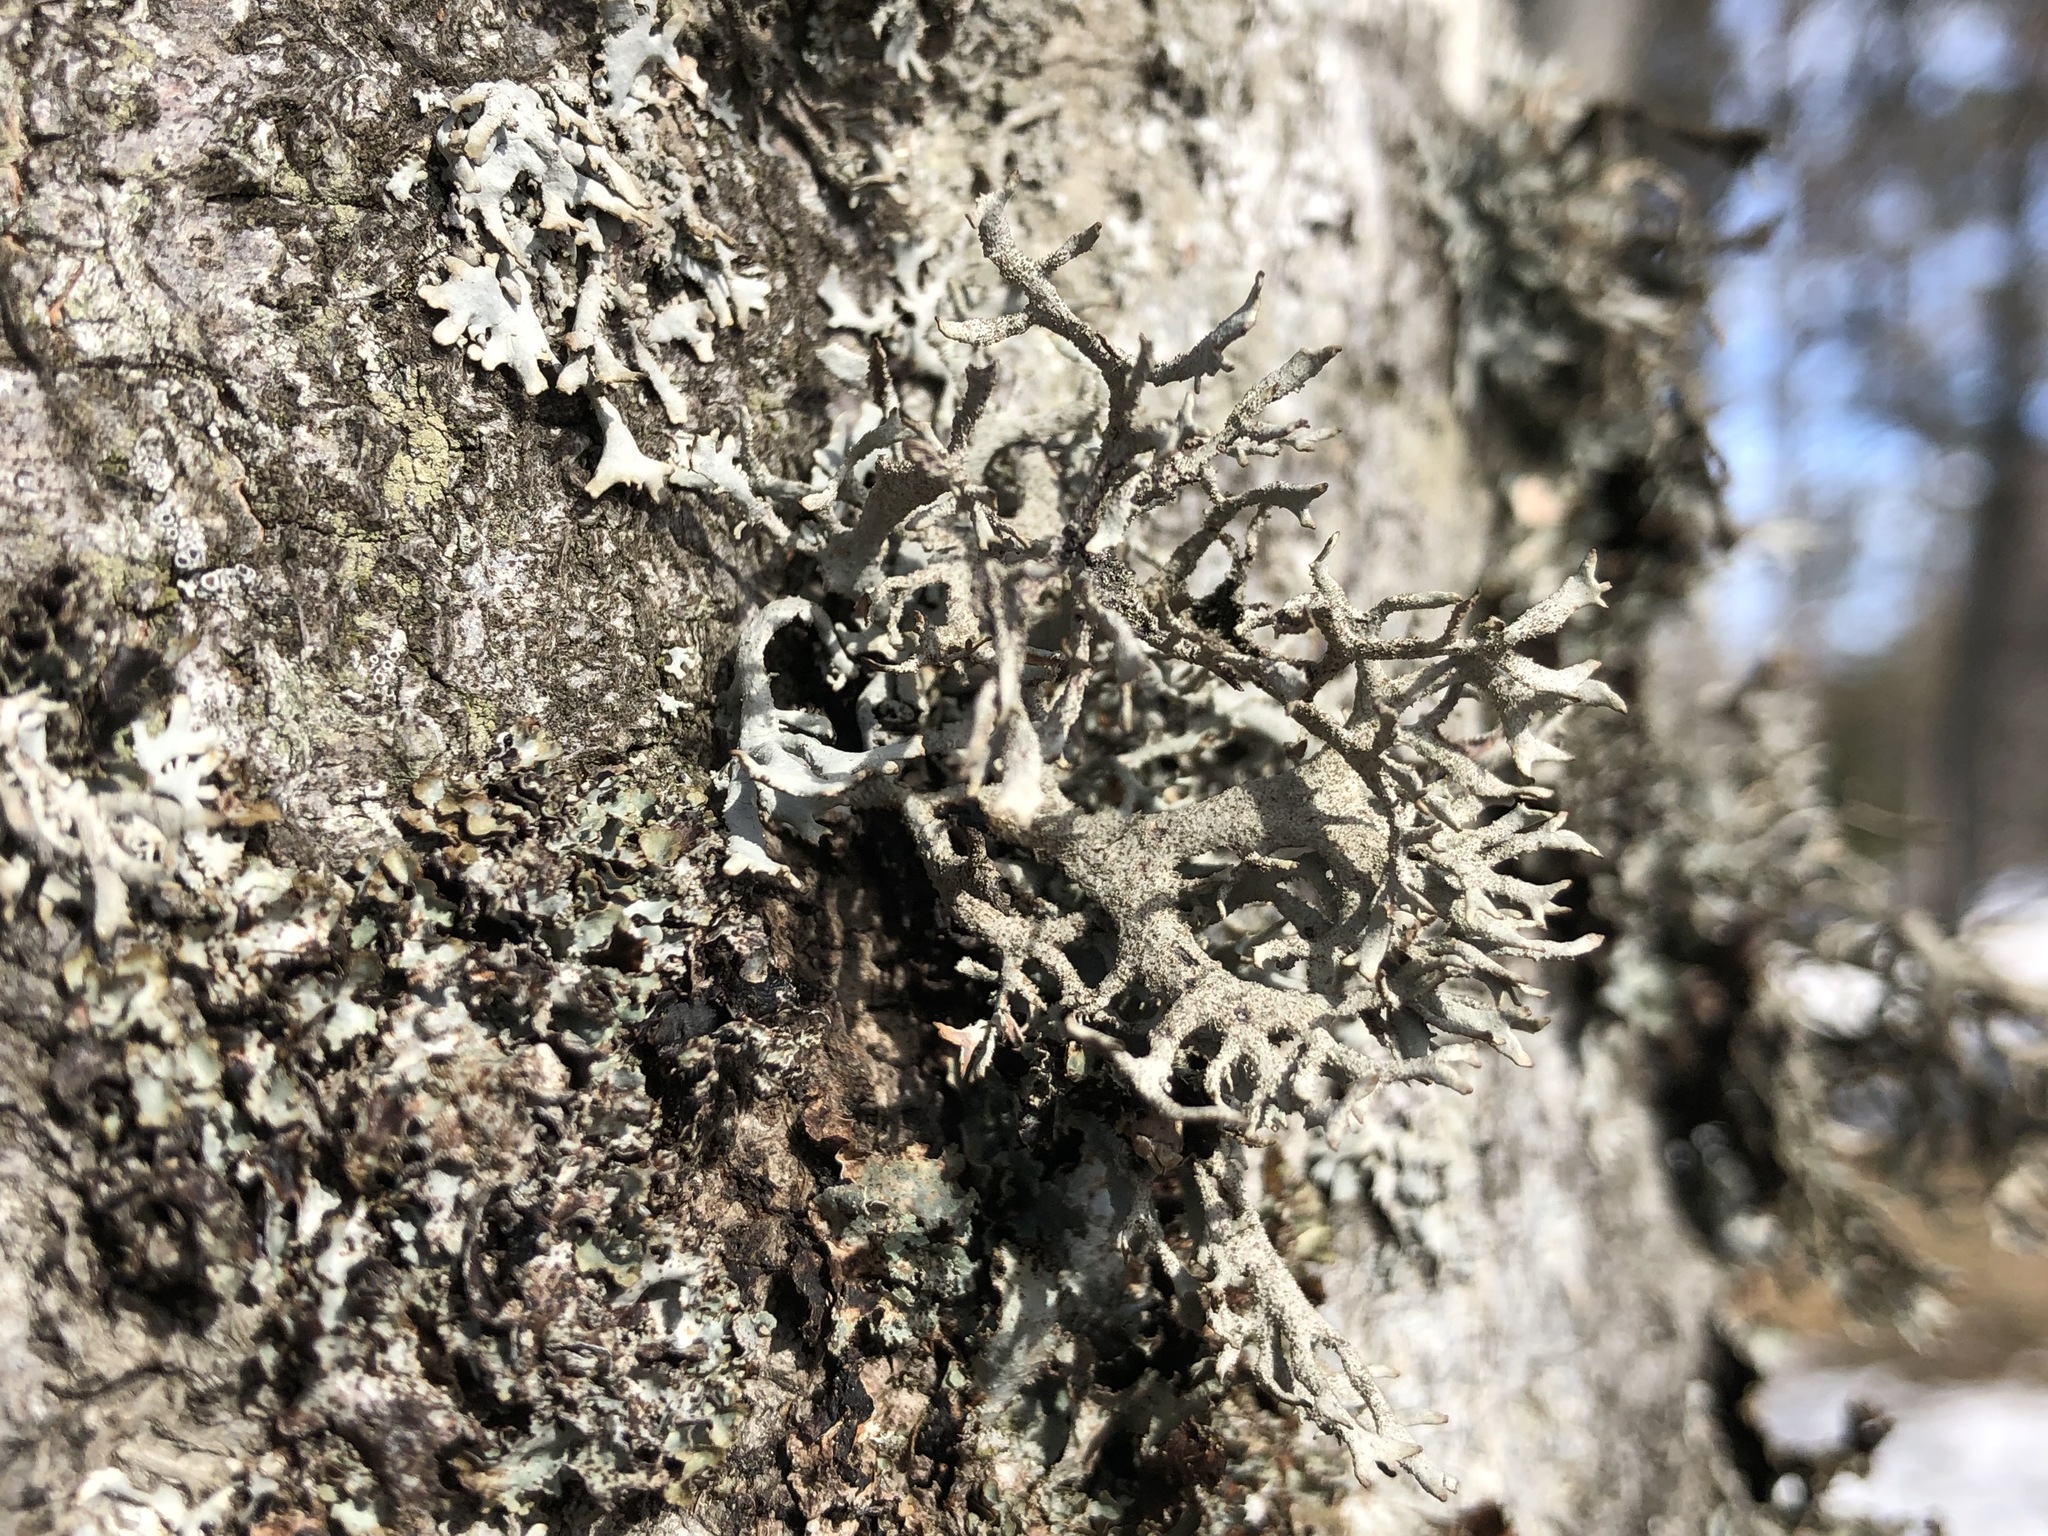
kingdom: Fungi
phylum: Ascomycota
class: Lecanoromycetes
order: Lecanorales
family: Parmeliaceae
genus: Pseudevernia
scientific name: Pseudevernia furfuracea
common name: Tree moss
